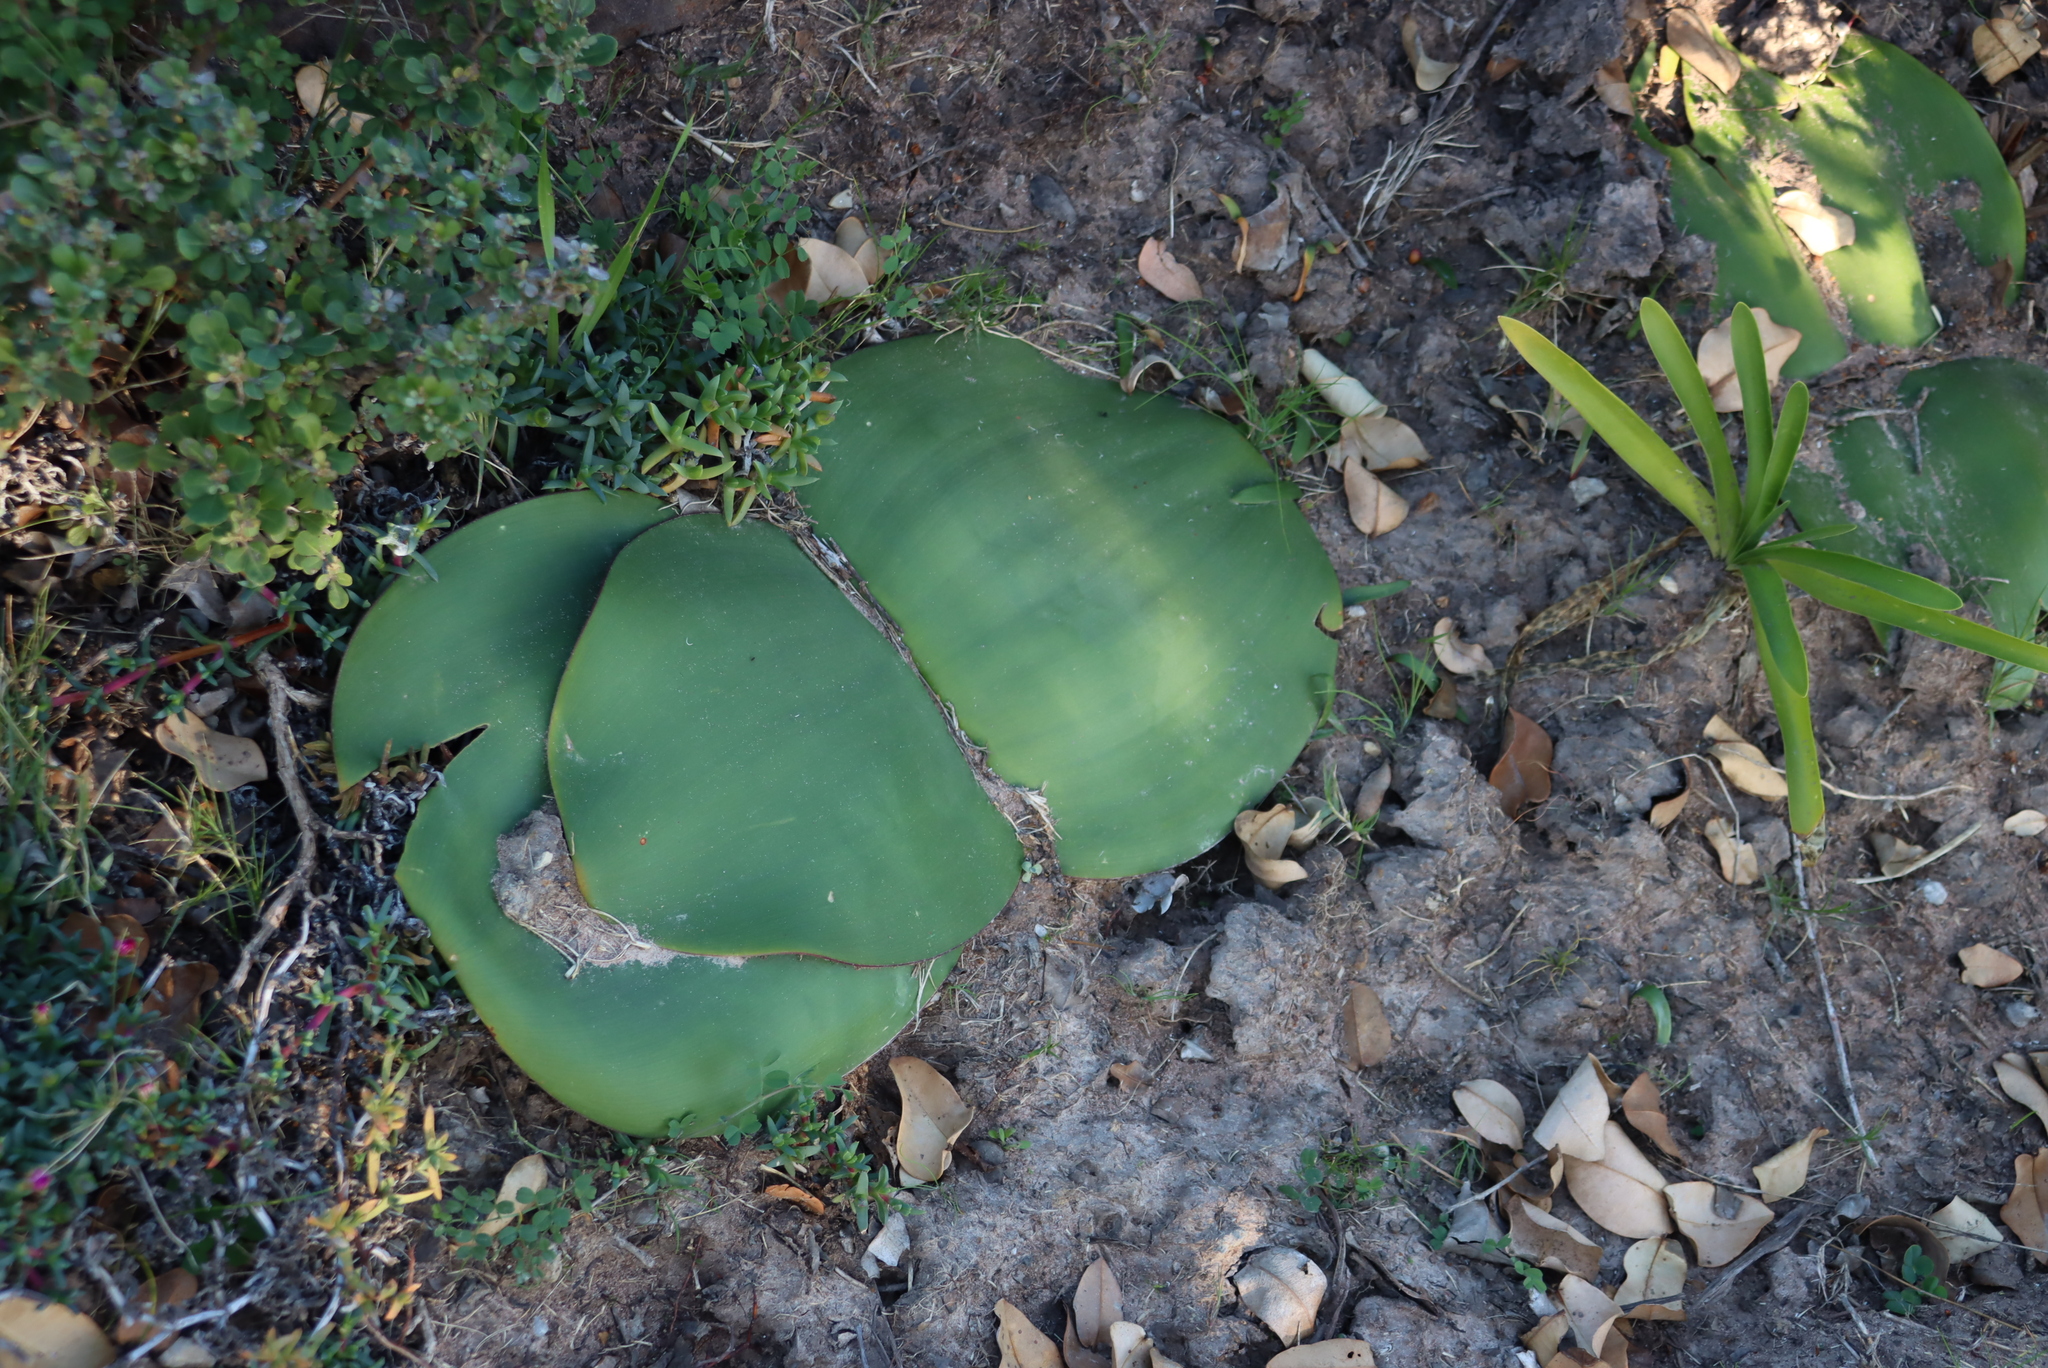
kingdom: Plantae
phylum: Tracheophyta
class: Liliopsida
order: Asparagales
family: Amaryllidaceae
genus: Haemanthus
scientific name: Haemanthus sanguineus
